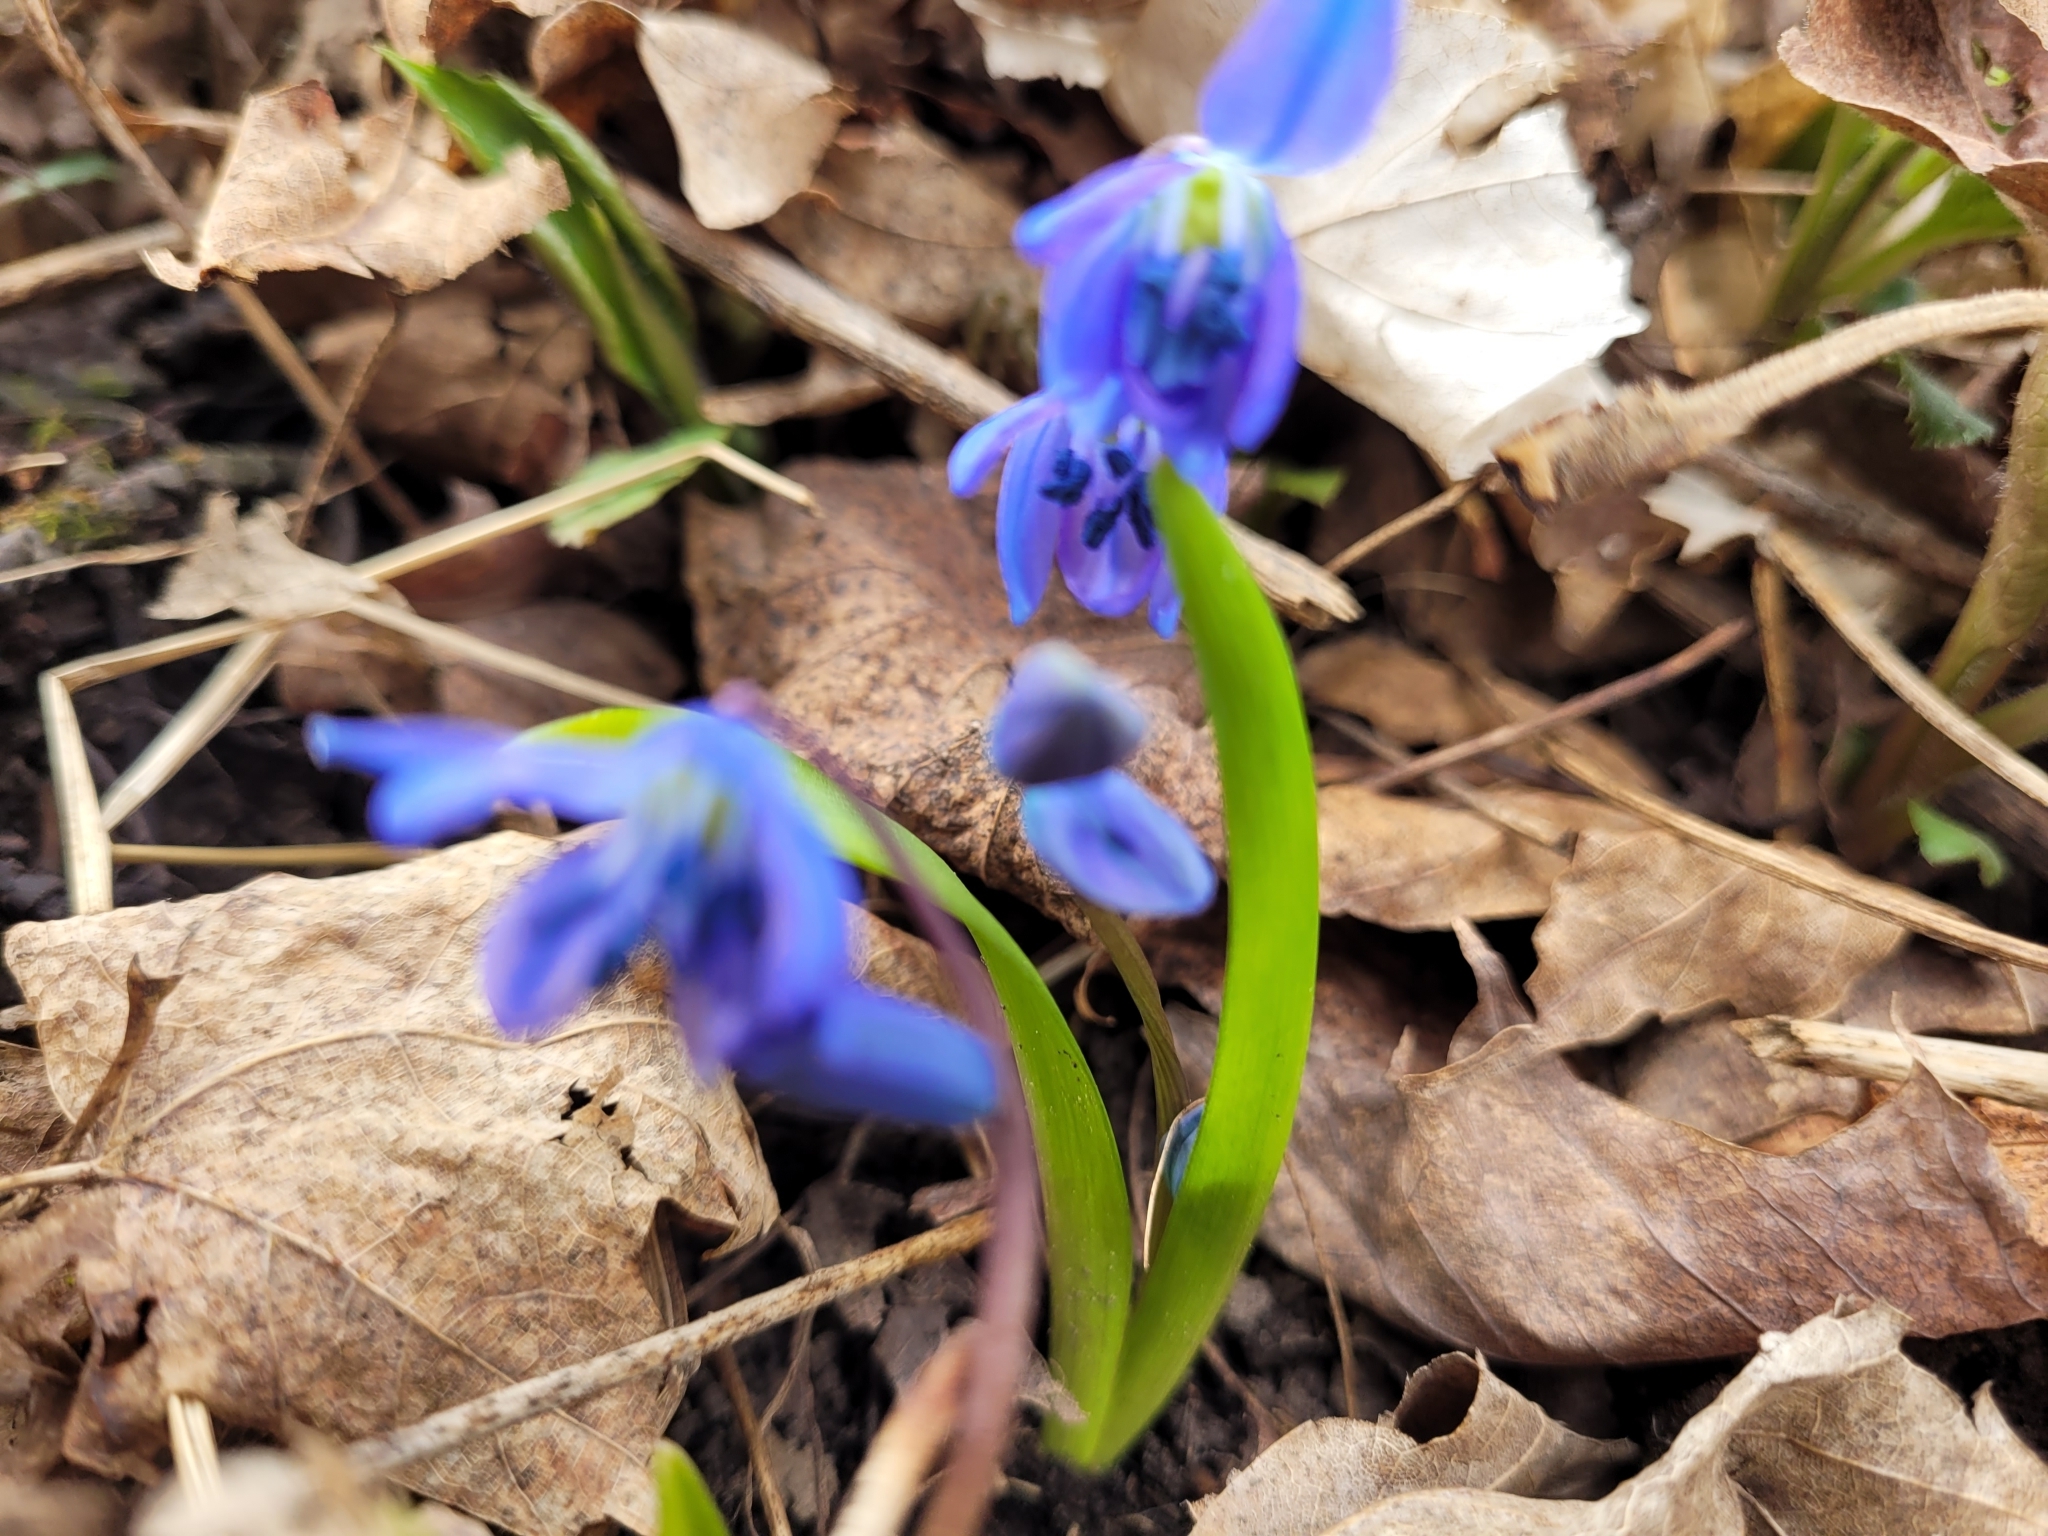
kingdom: Plantae
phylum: Tracheophyta
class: Liliopsida
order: Asparagales
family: Asparagaceae
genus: Scilla
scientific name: Scilla siberica
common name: Siberian squill
